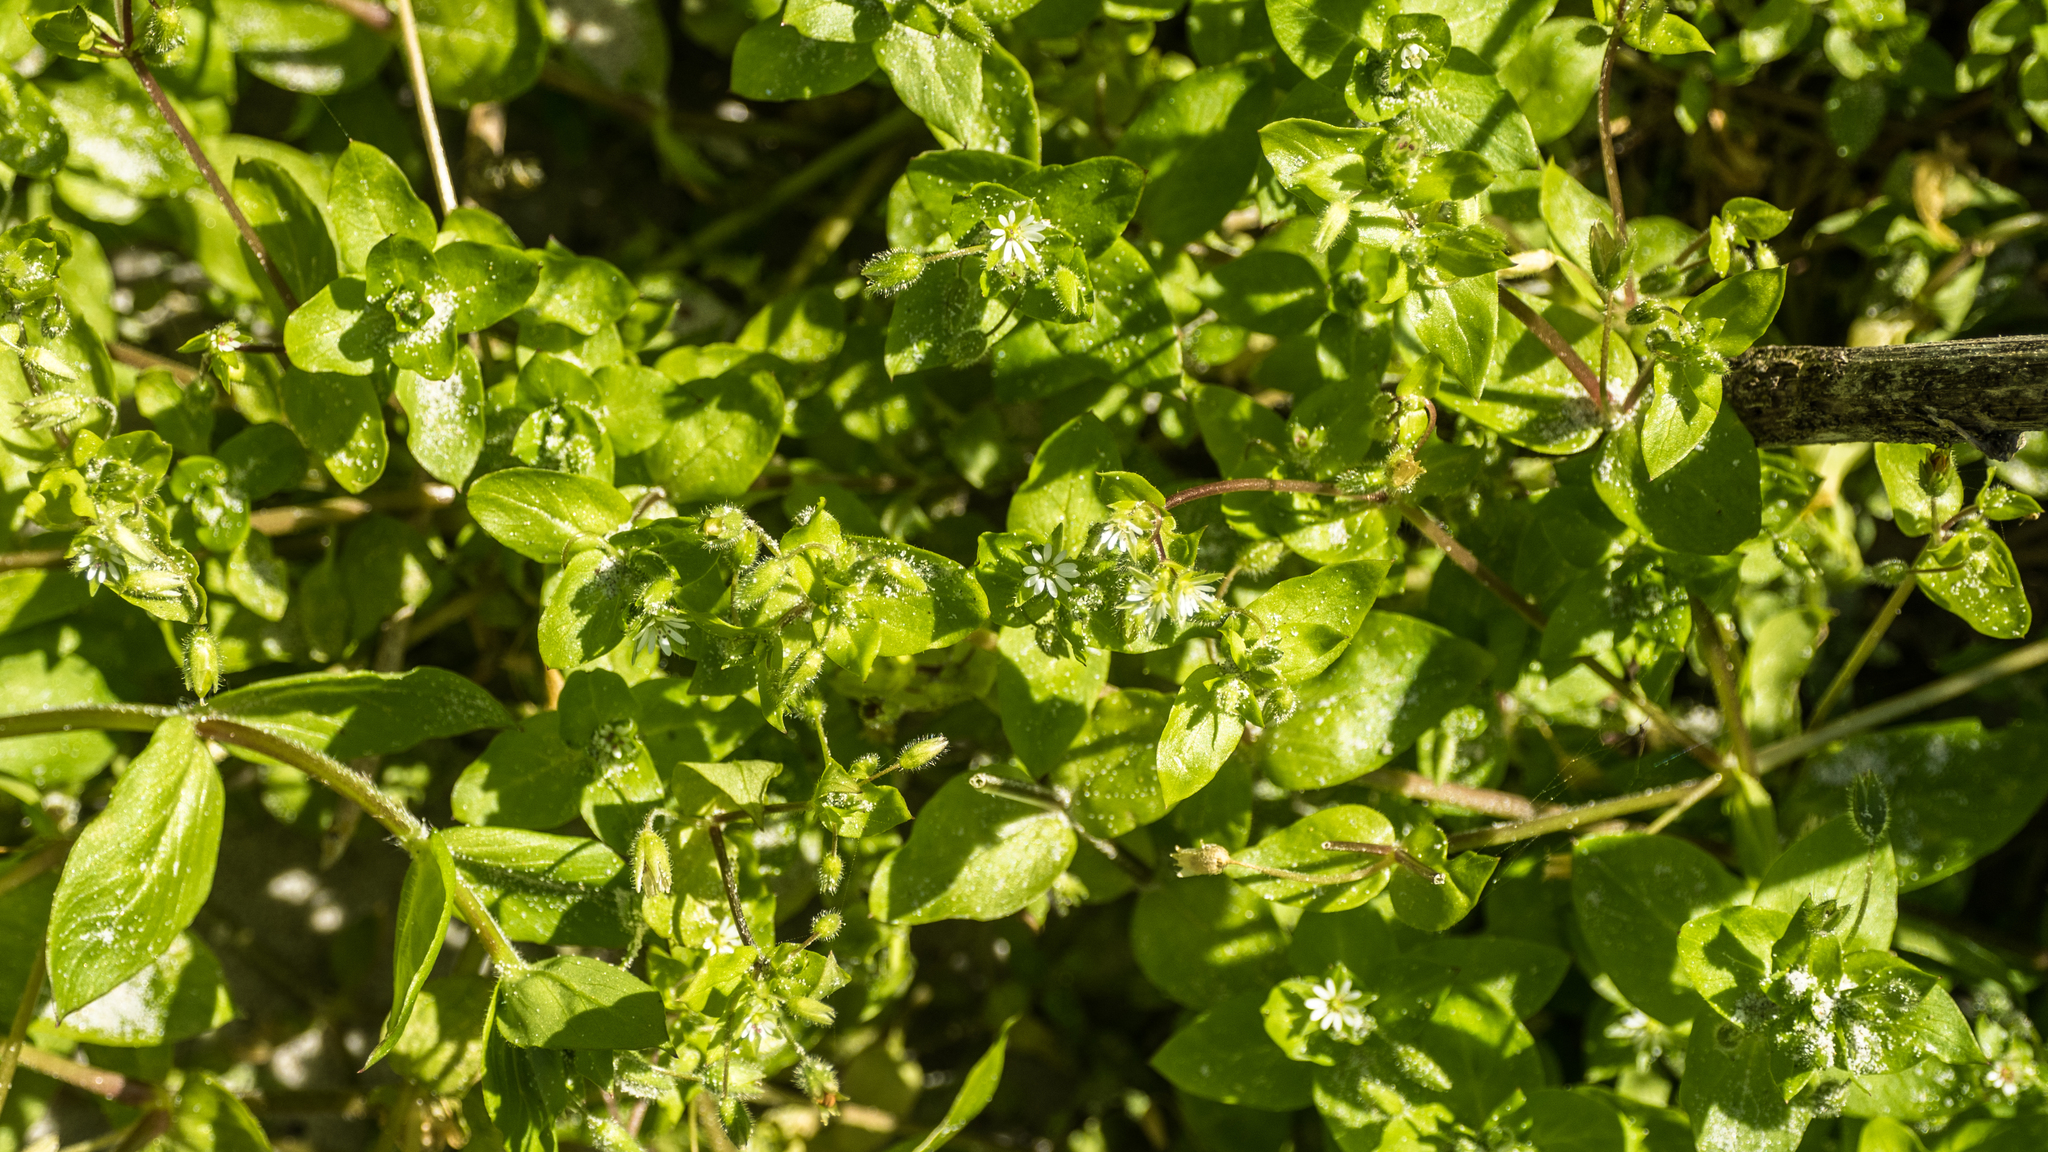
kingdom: Plantae
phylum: Tracheophyta
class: Magnoliopsida
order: Caryophyllales
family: Caryophyllaceae
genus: Stellaria
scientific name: Stellaria media
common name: Common chickweed
